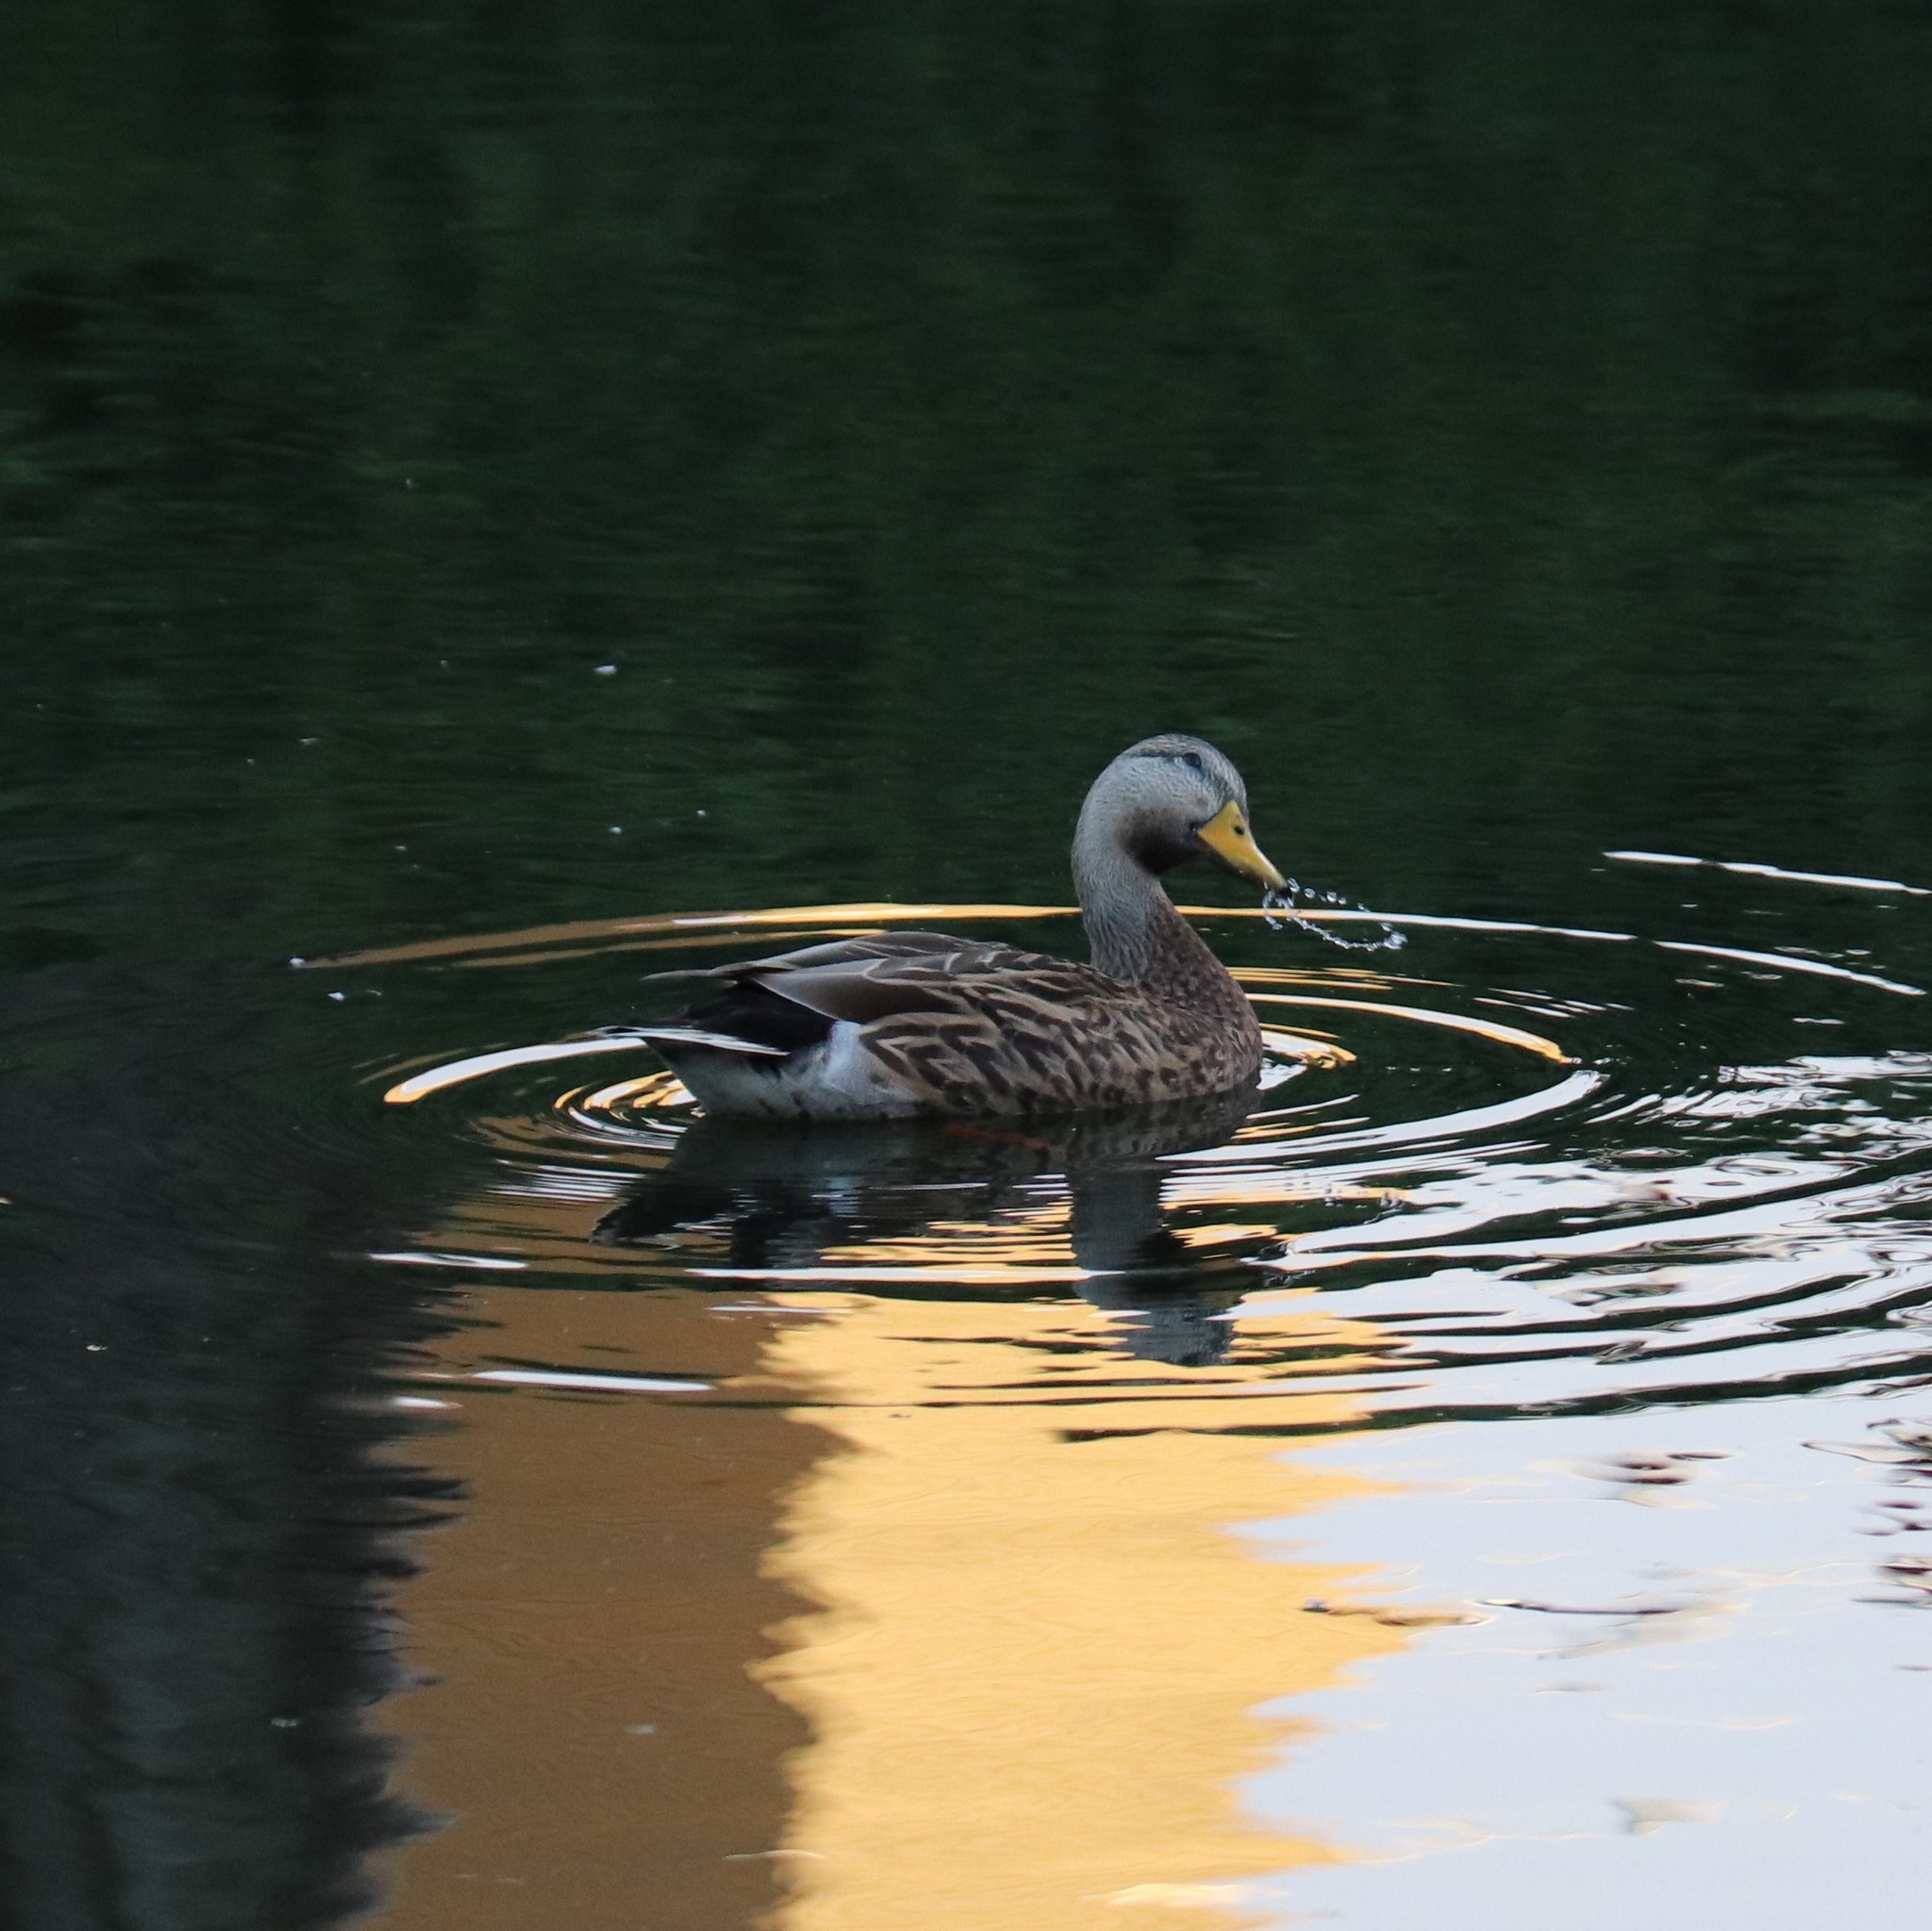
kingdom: Animalia
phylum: Chordata
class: Aves
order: Anseriformes
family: Anatidae
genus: Anas
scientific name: Anas
